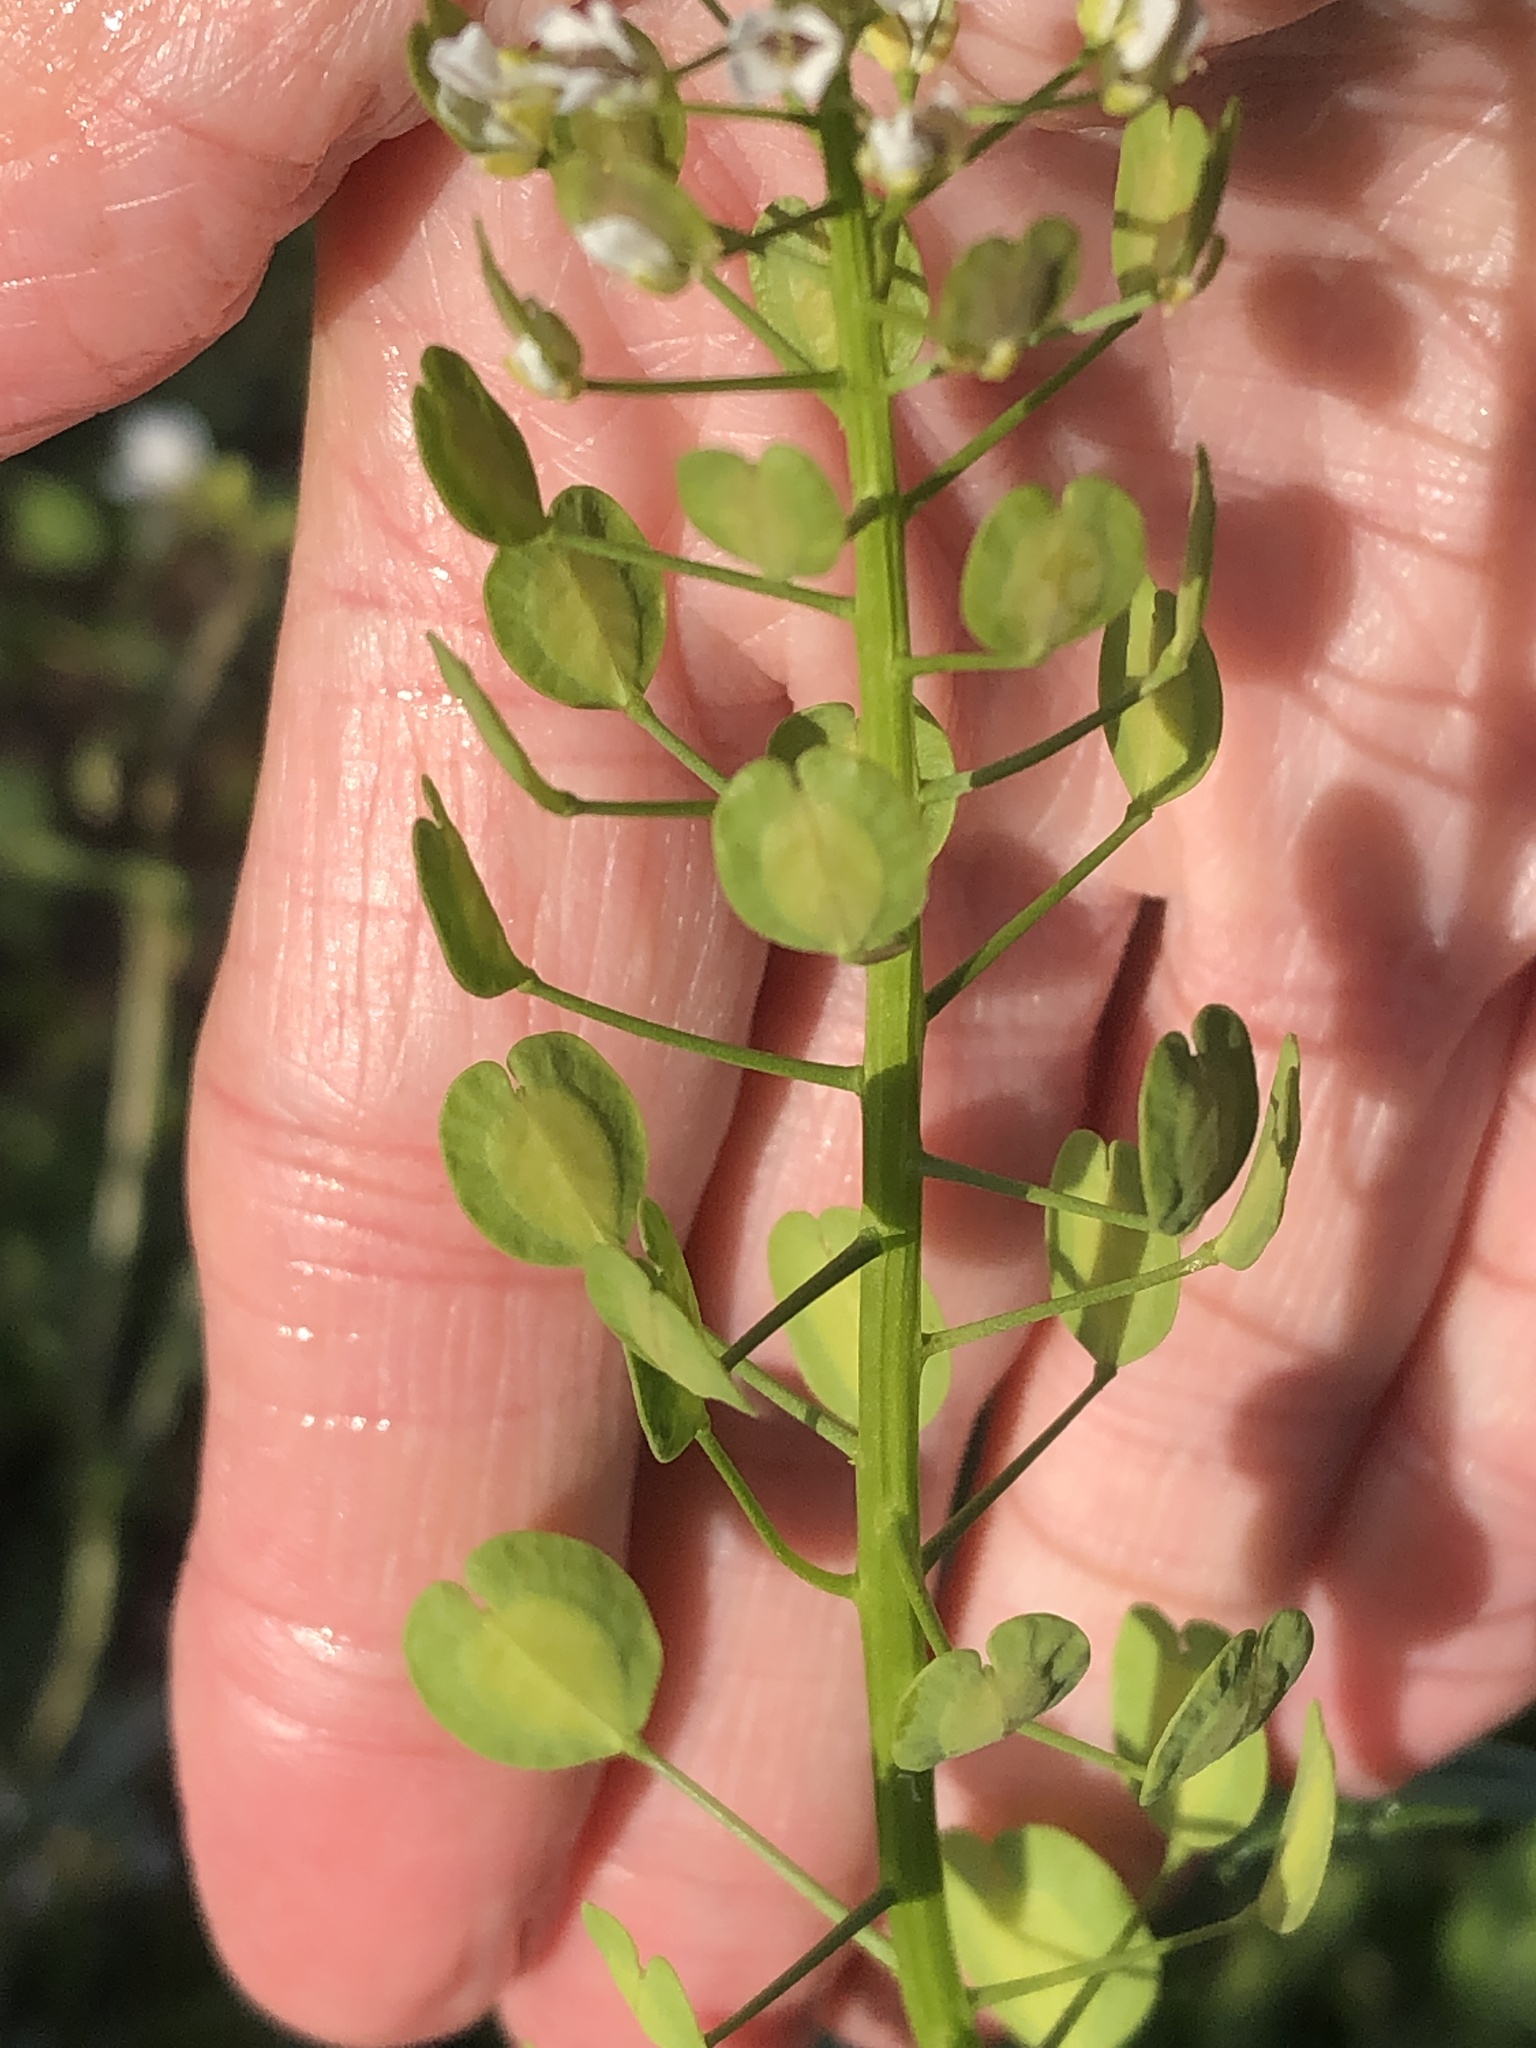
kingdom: Plantae
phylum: Tracheophyta
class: Magnoliopsida
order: Brassicales
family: Brassicaceae
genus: Thlaspi
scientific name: Thlaspi arvense
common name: Field pennycress
